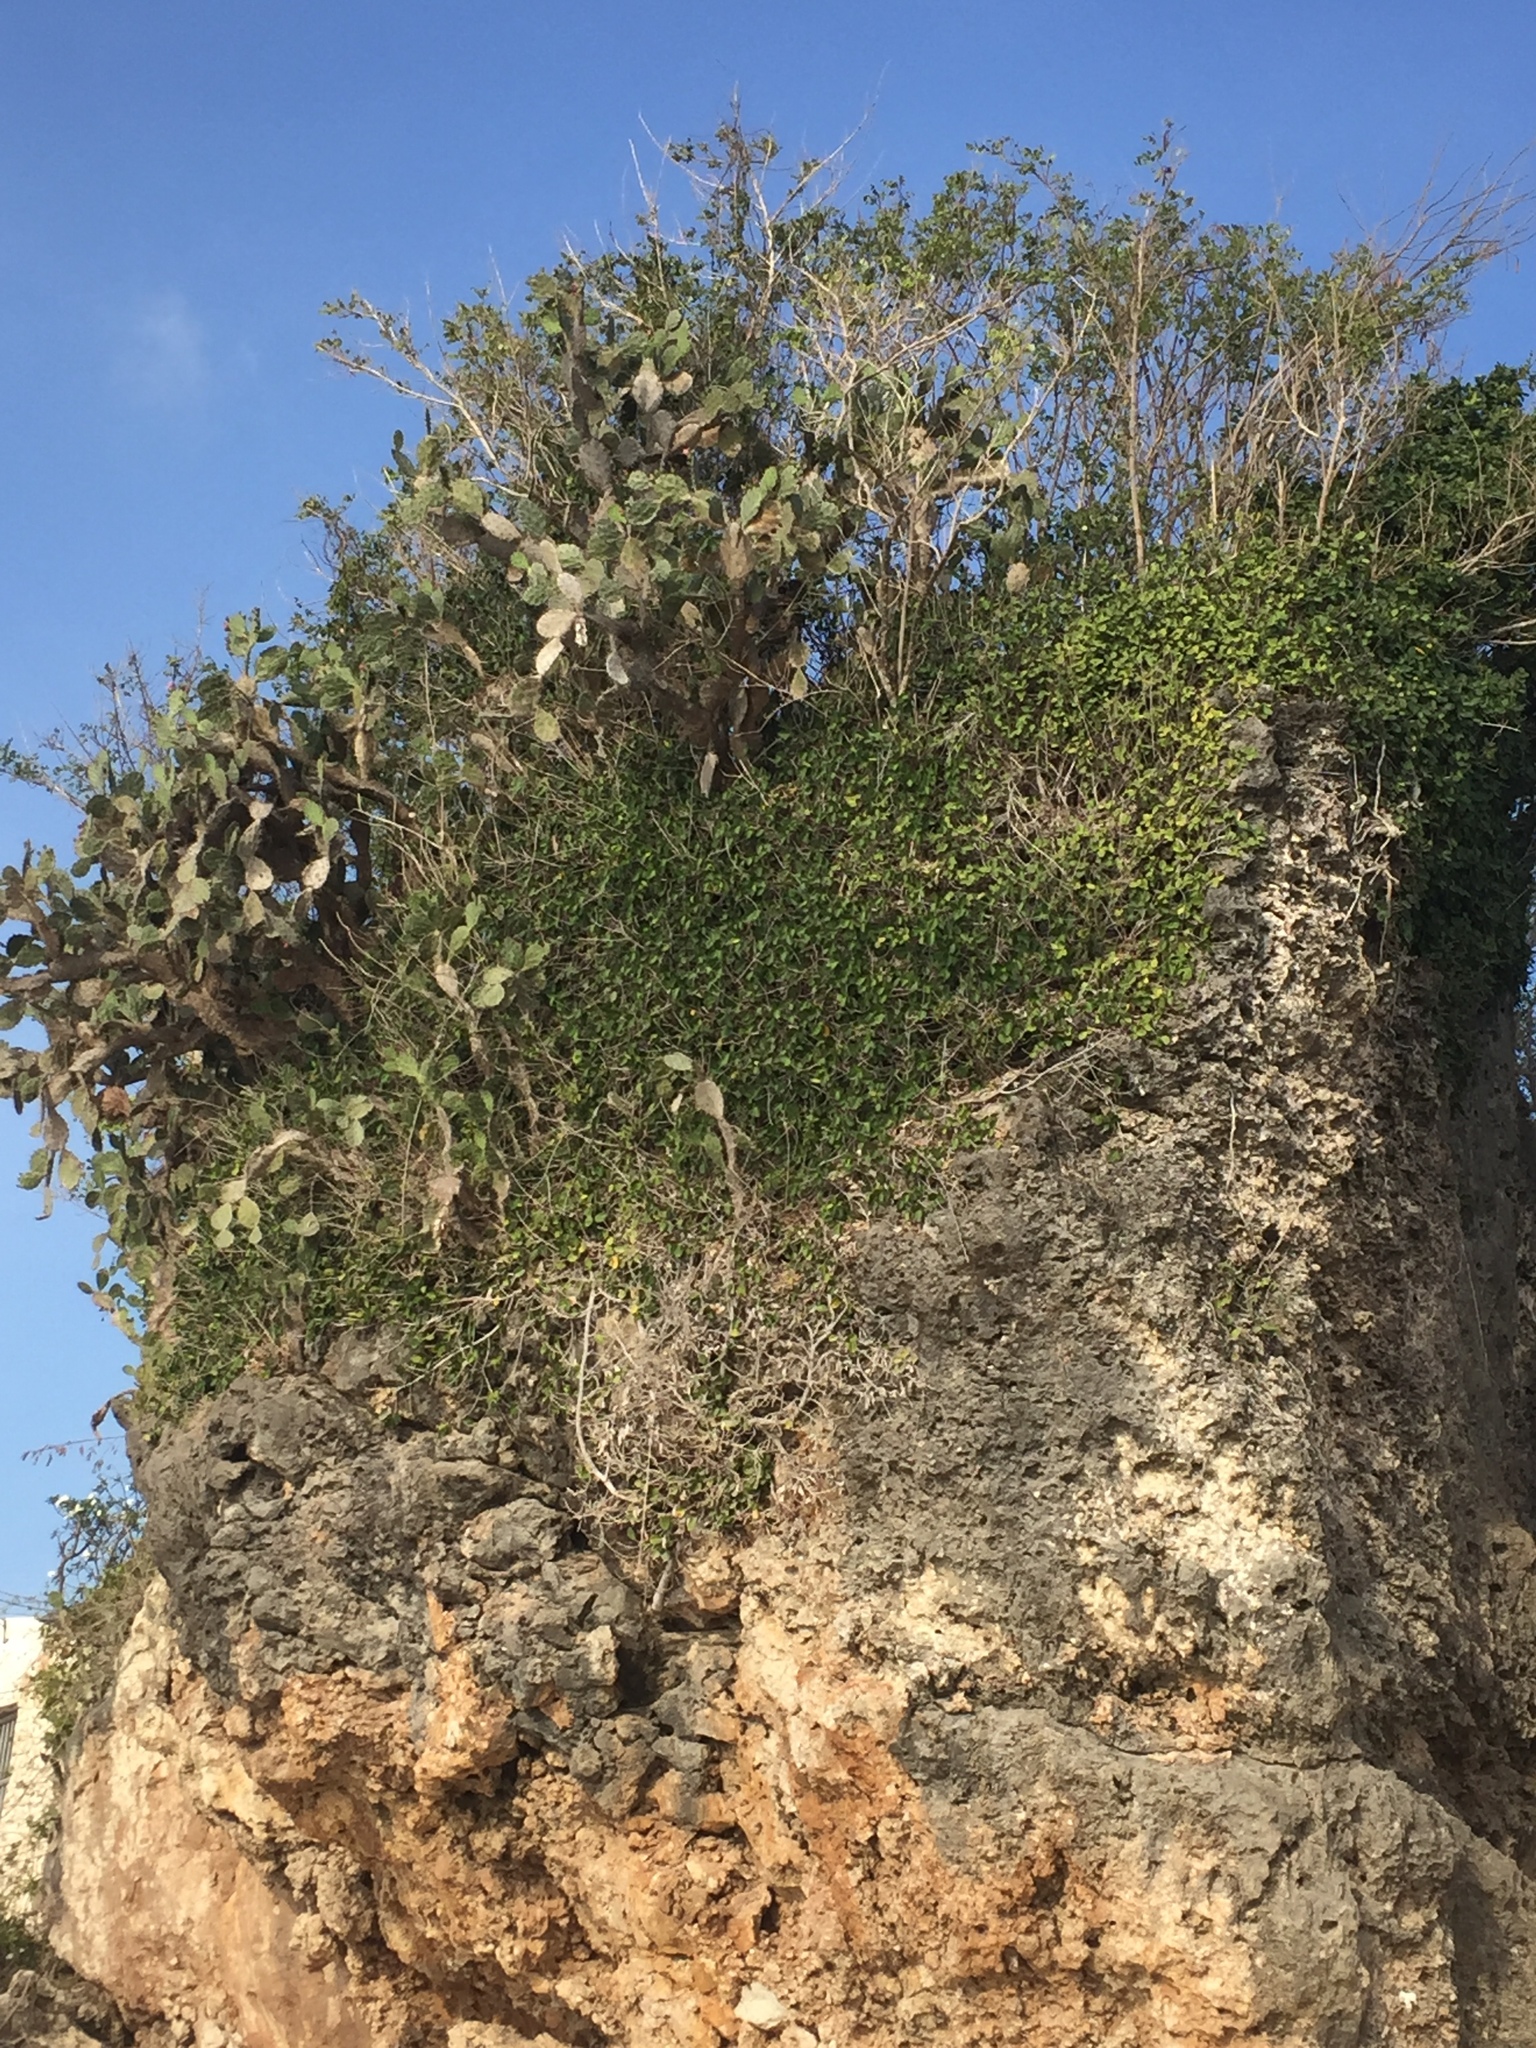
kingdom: Plantae
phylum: Tracheophyta
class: Magnoliopsida
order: Caryophyllales
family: Cactaceae
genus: Opuntia
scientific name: Opuntia elatior
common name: Tuna
